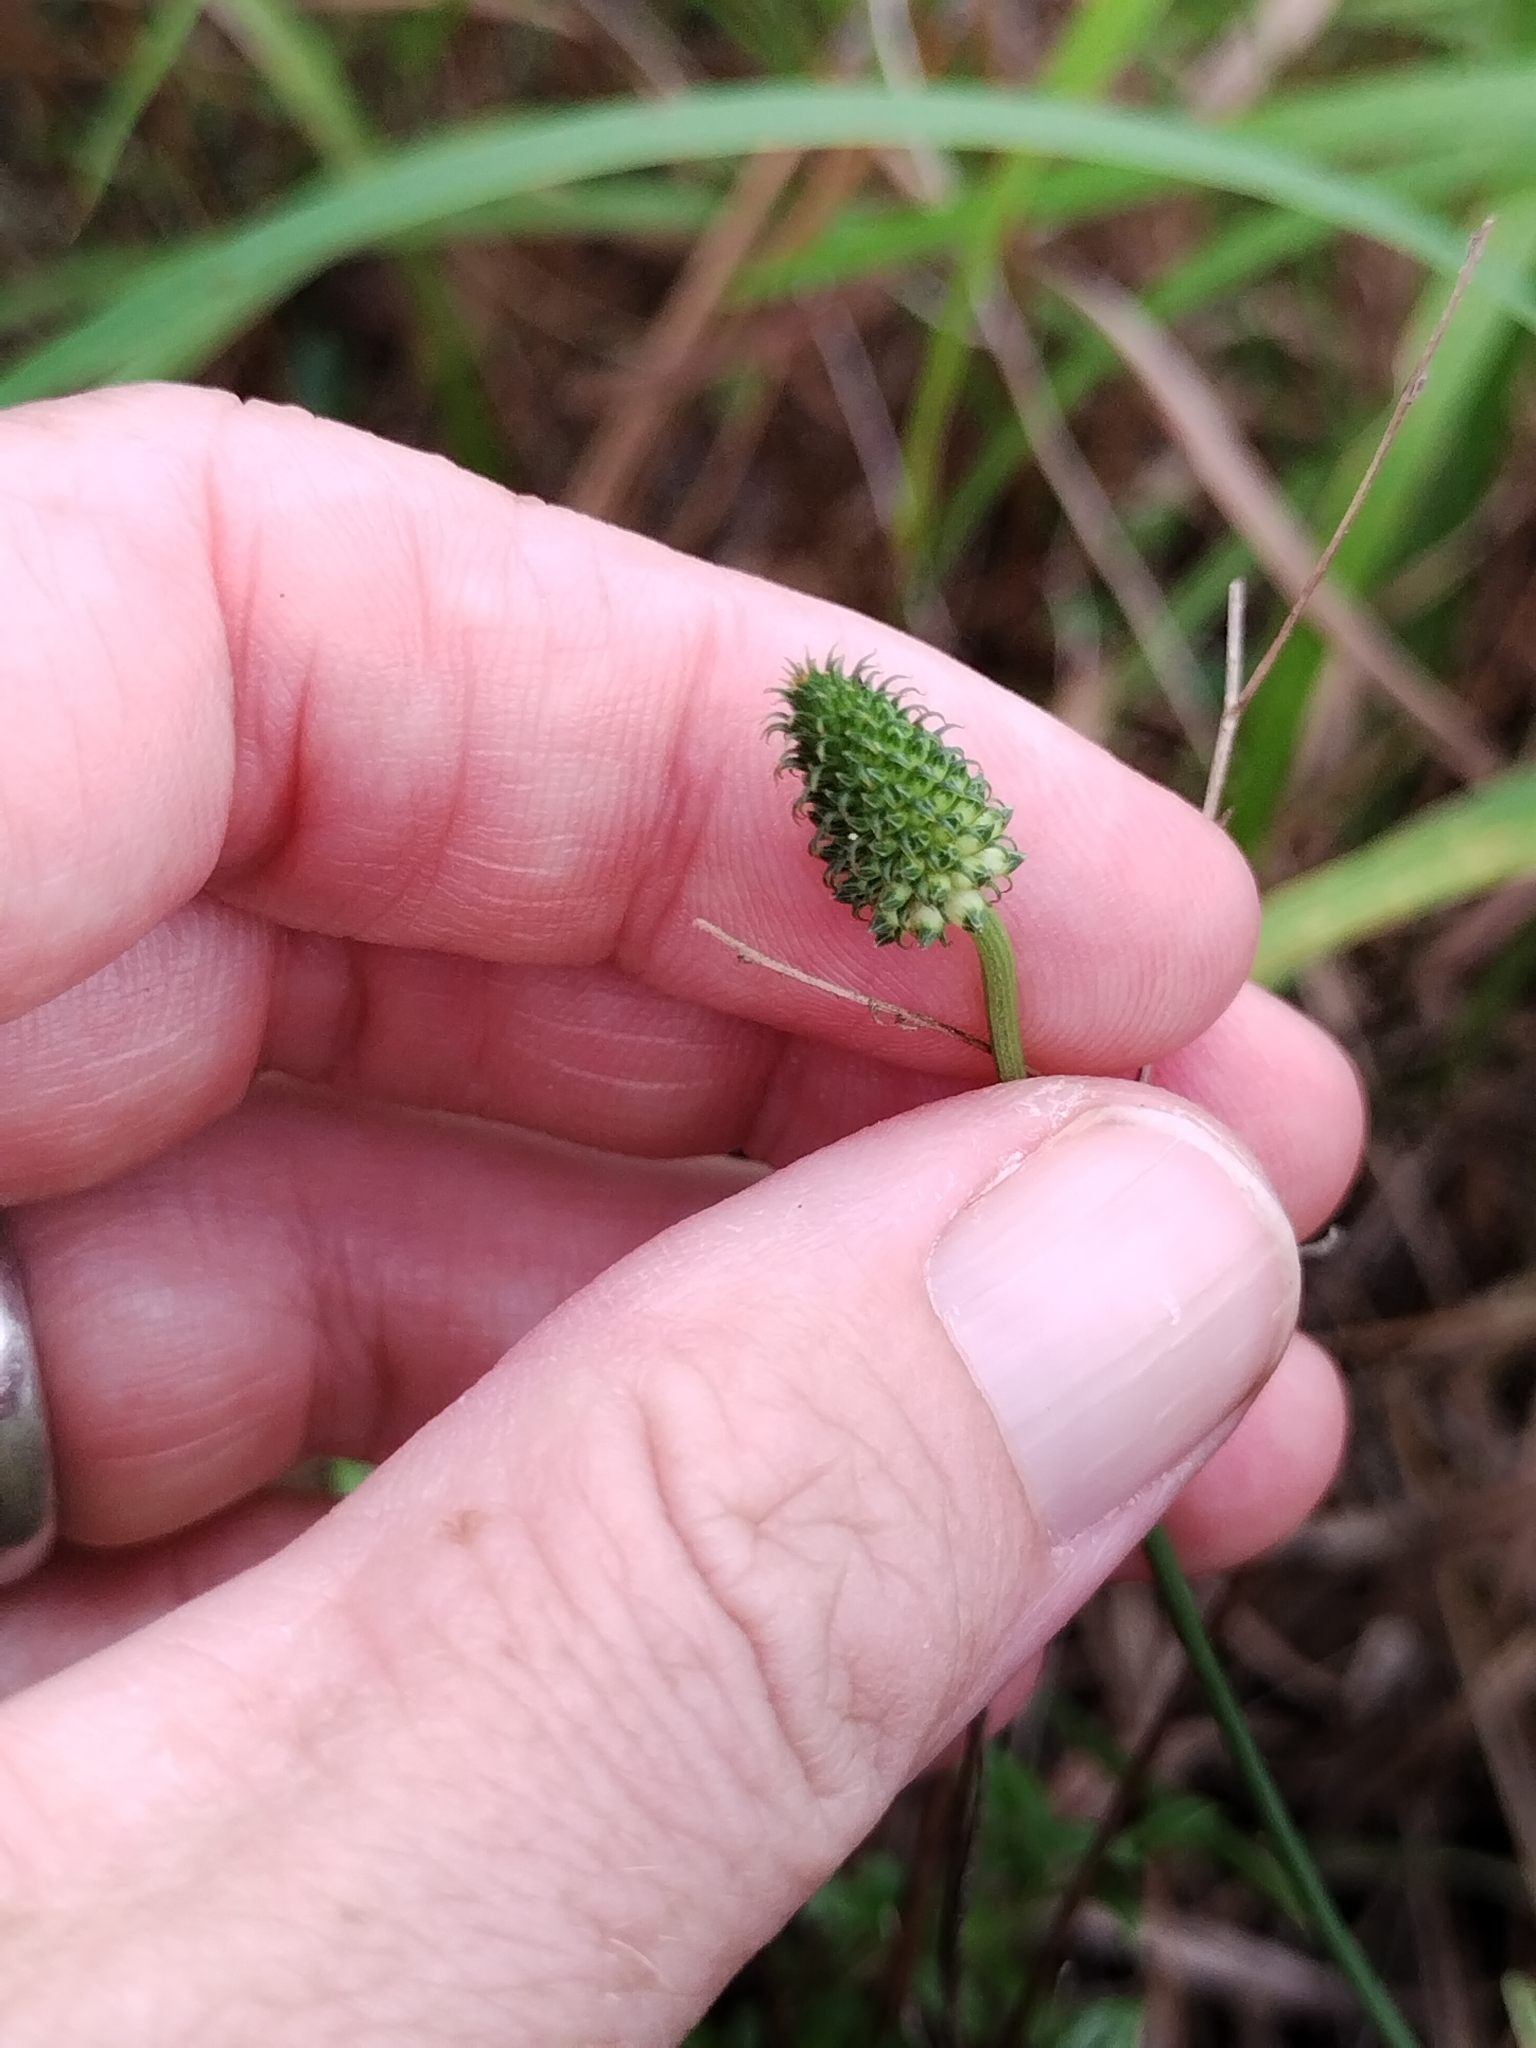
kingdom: Plantae
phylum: Tracheophyta
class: Magnoliopsida
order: Fabales
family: Fabaceae
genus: Dalea
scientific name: Dalea candida
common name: White prairie-clover
